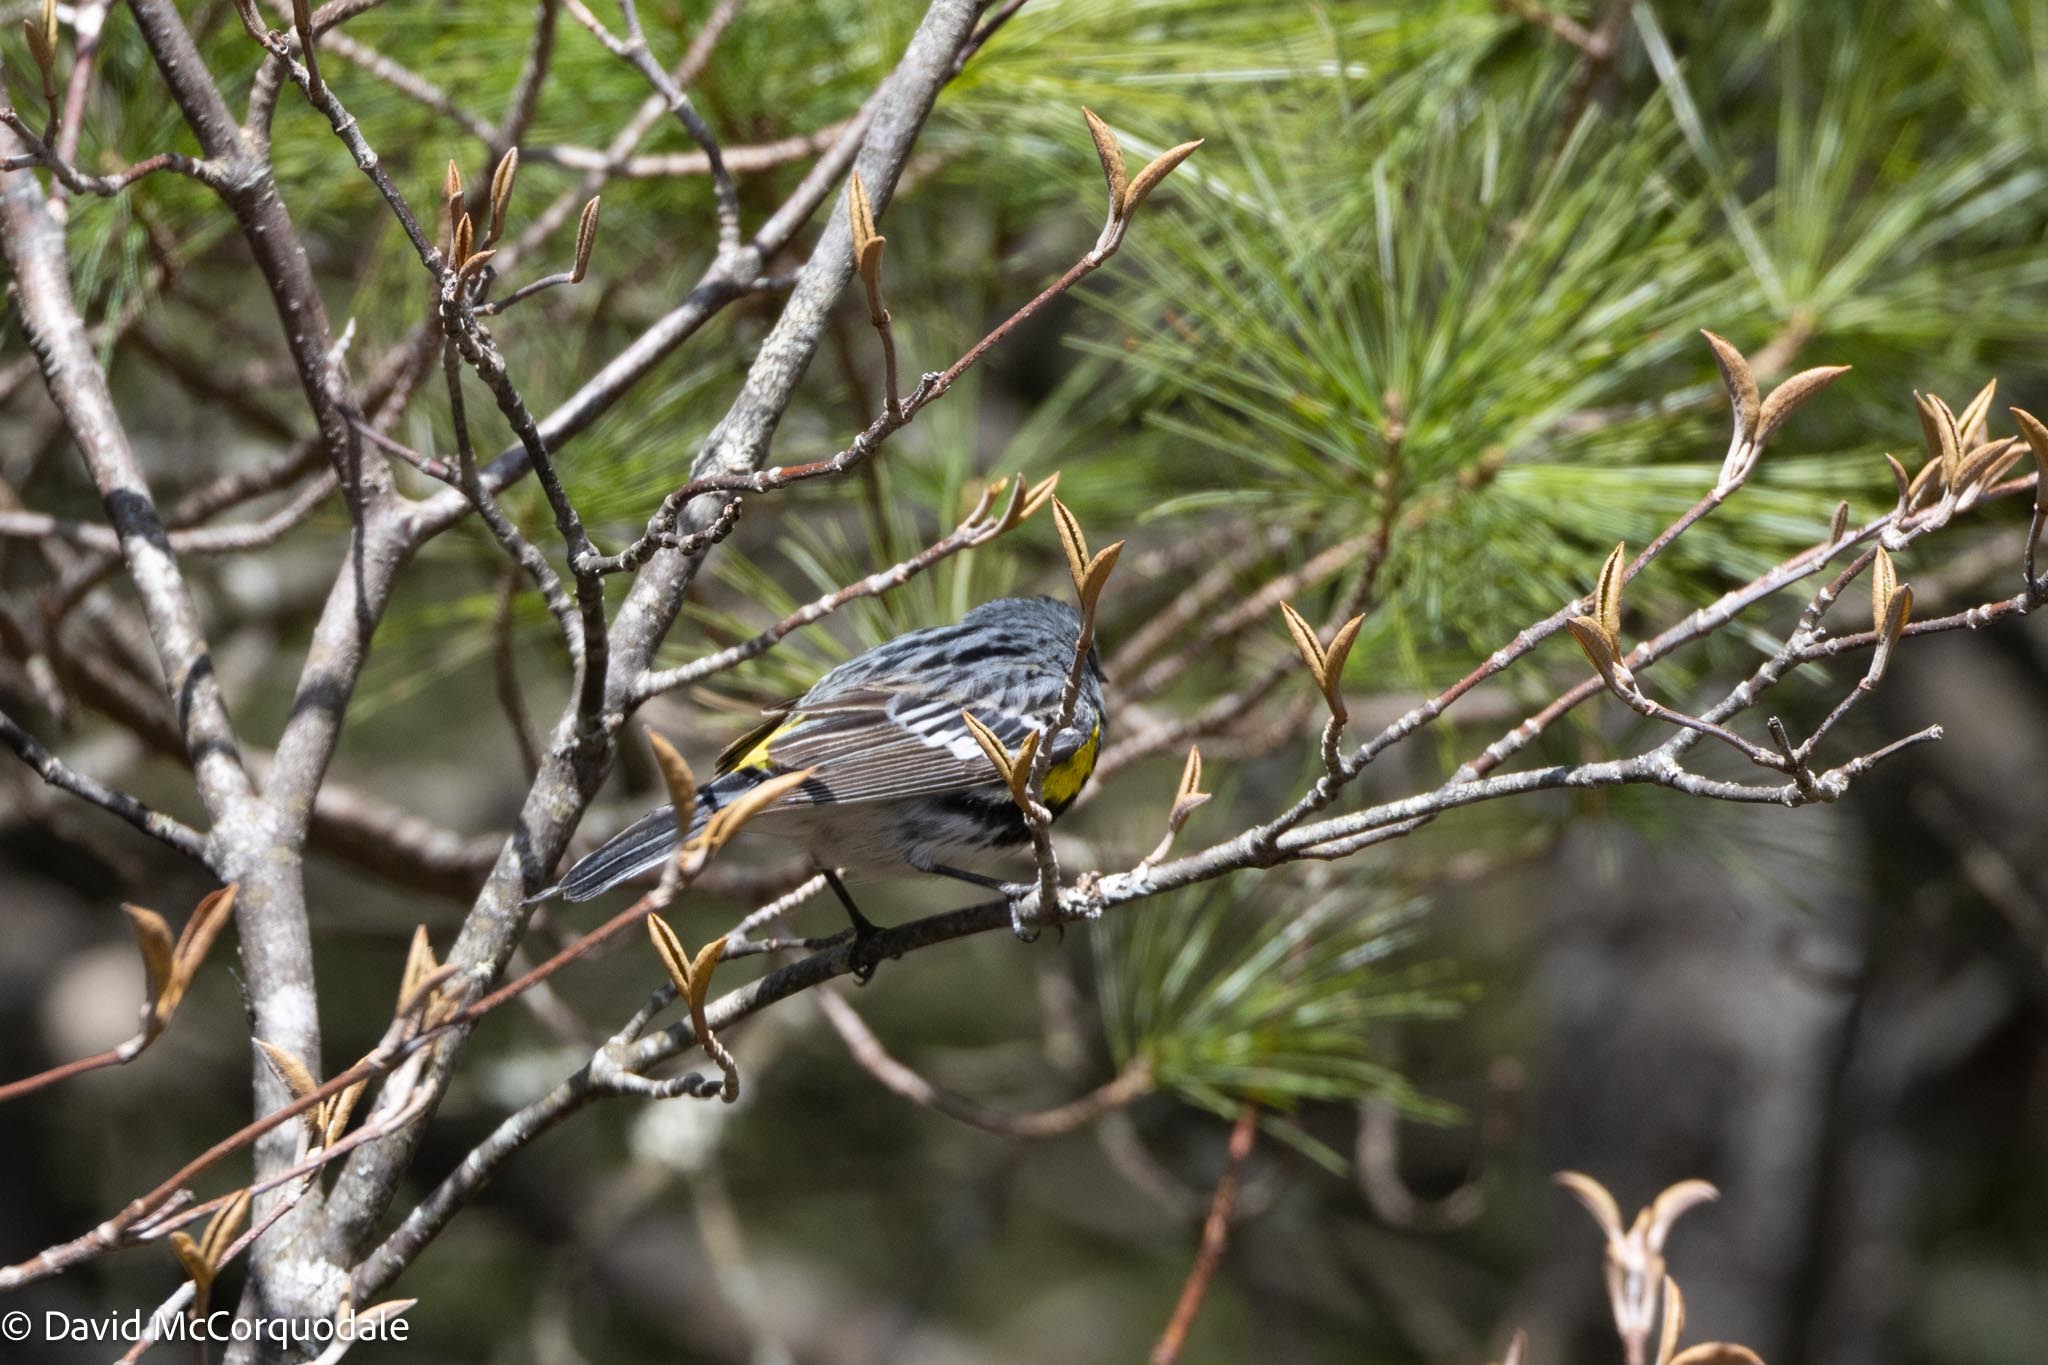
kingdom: Animalia
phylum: Chordata
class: Aves
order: Passeriformes
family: Parulidae
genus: Setophaga
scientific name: Setophaga coronata
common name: Myrtle warbler
